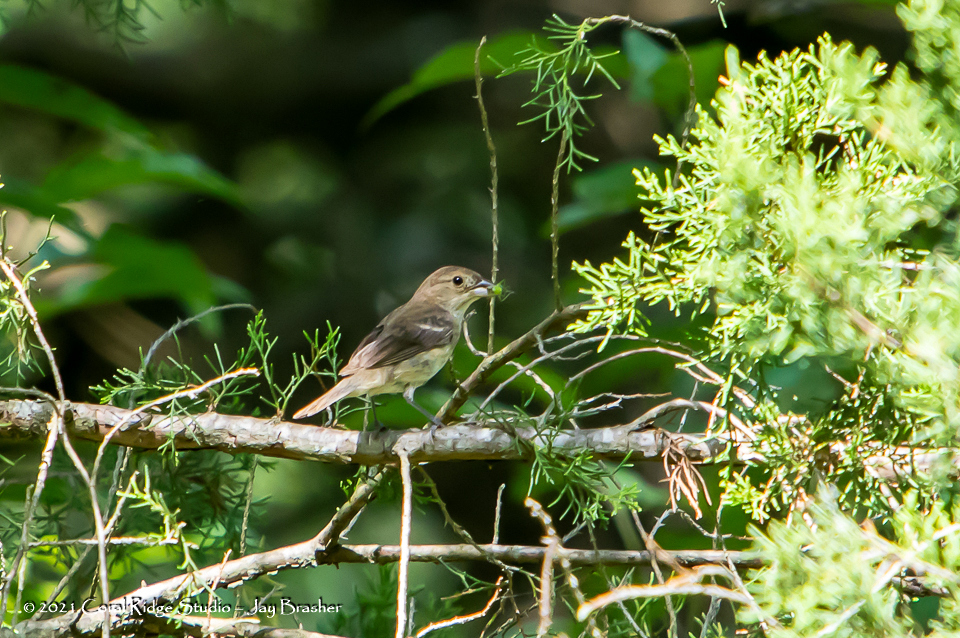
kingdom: Animalia
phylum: Chordata
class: Aves
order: Passeriformes
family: Cardinalidae
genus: Passerina
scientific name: Passerina cyanea
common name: Indigo bunting
